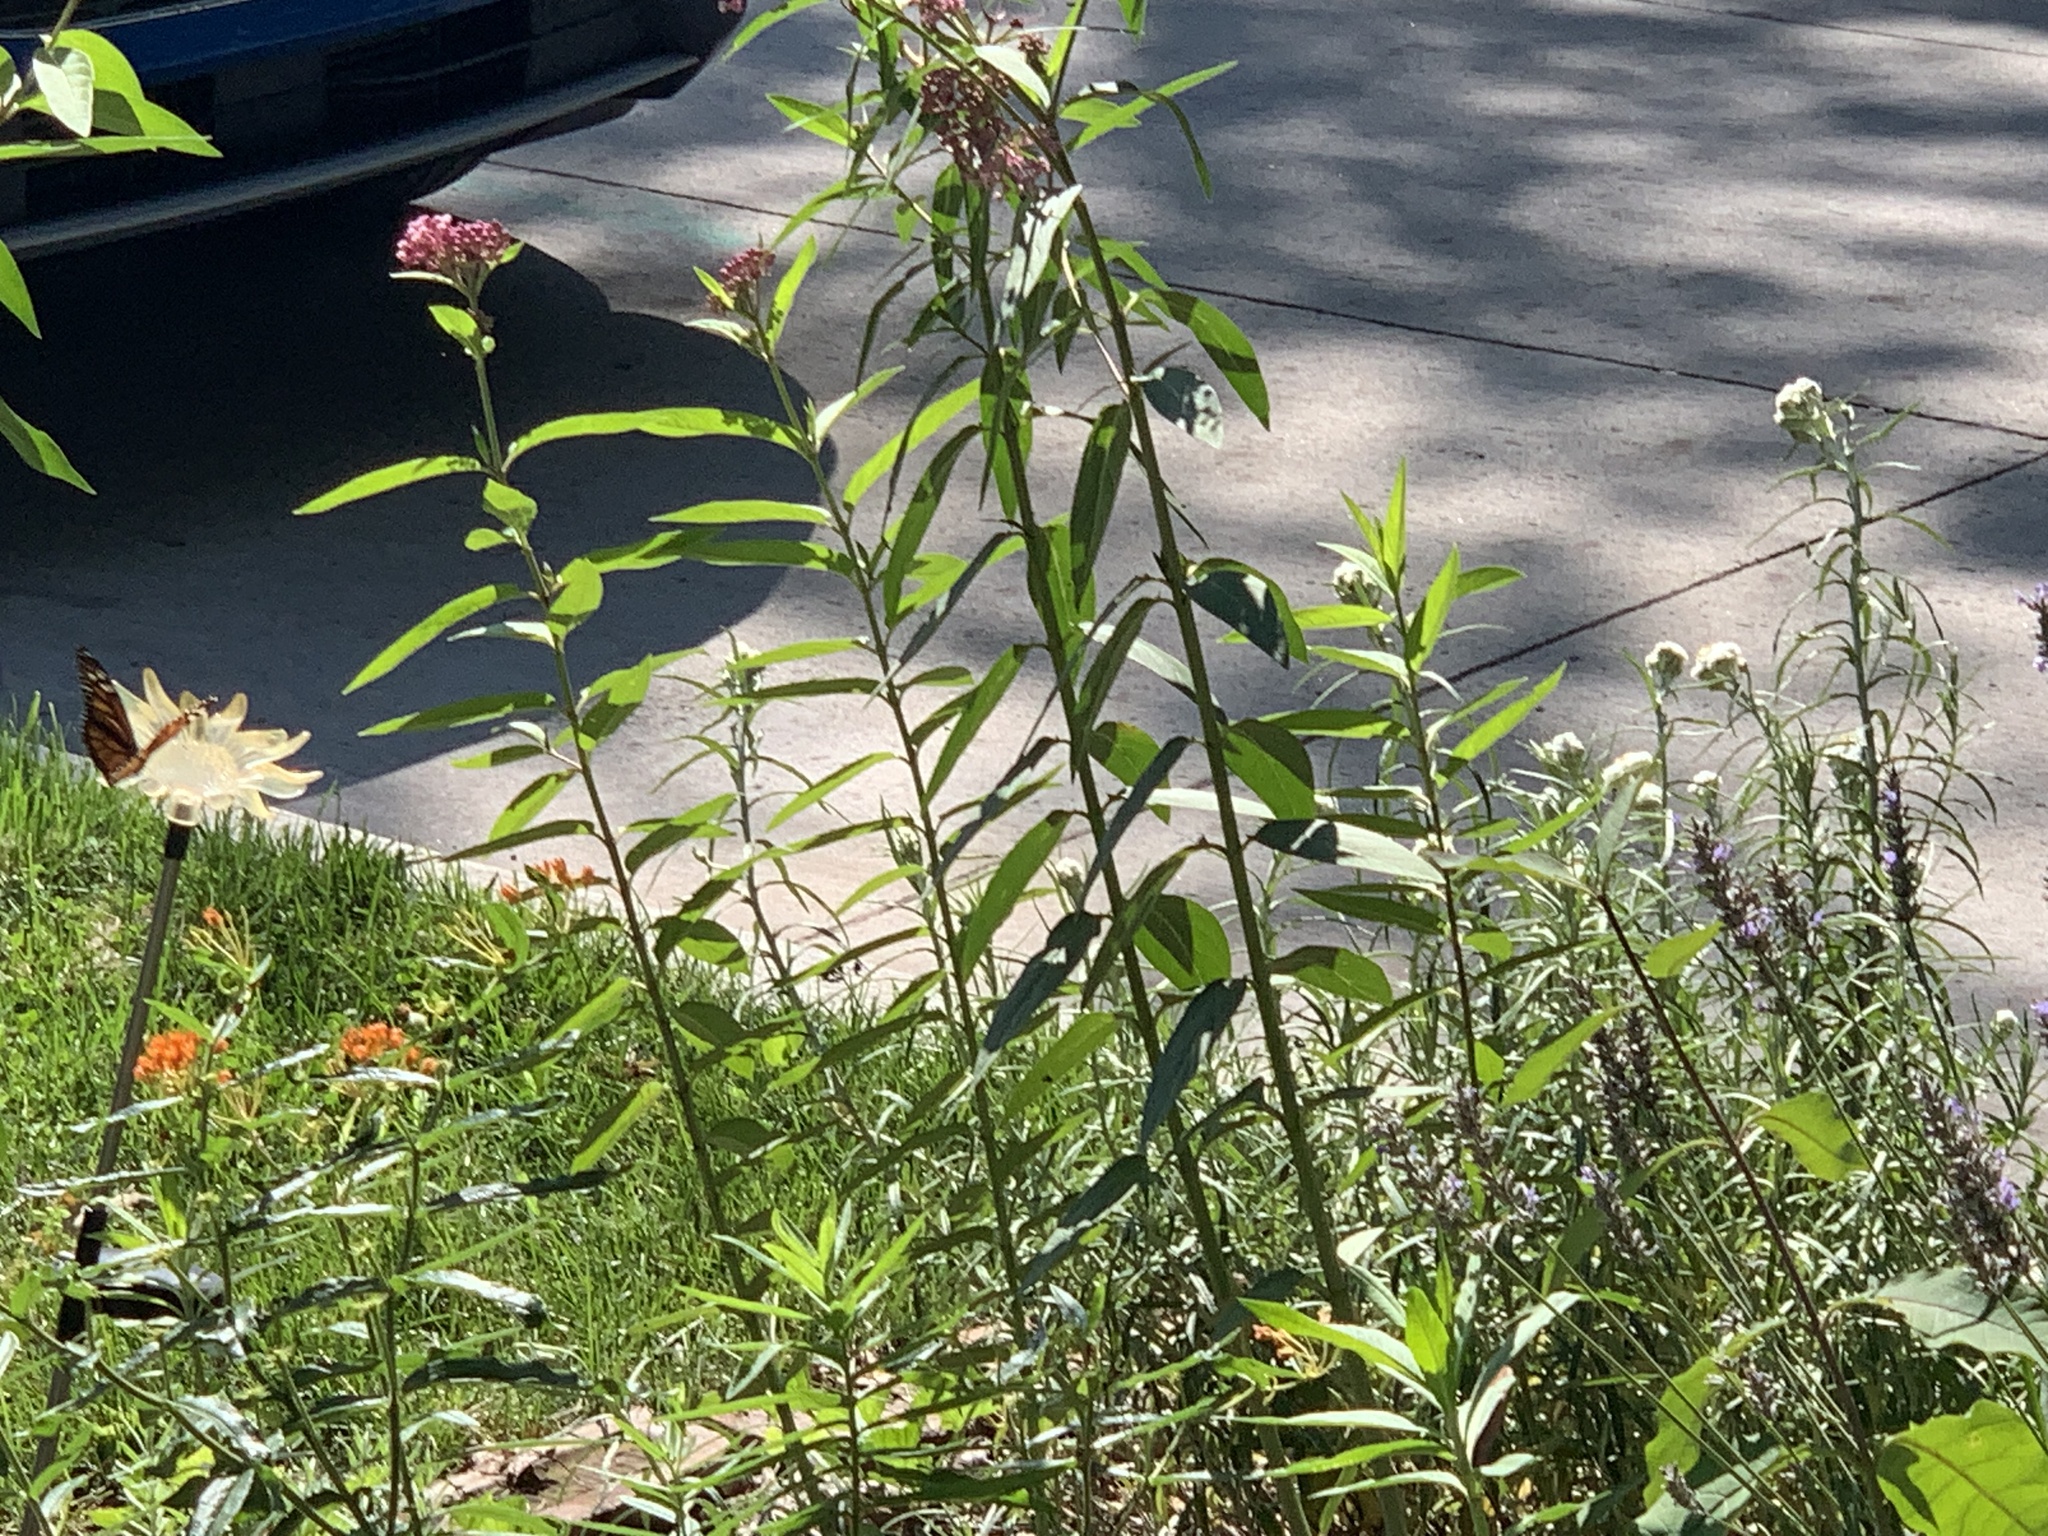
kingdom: Animalia
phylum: Arthropoda
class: Insecta
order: Lepidoptera
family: Nymphalidae
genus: Danaus
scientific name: Danaus plexippus
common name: Monarch
